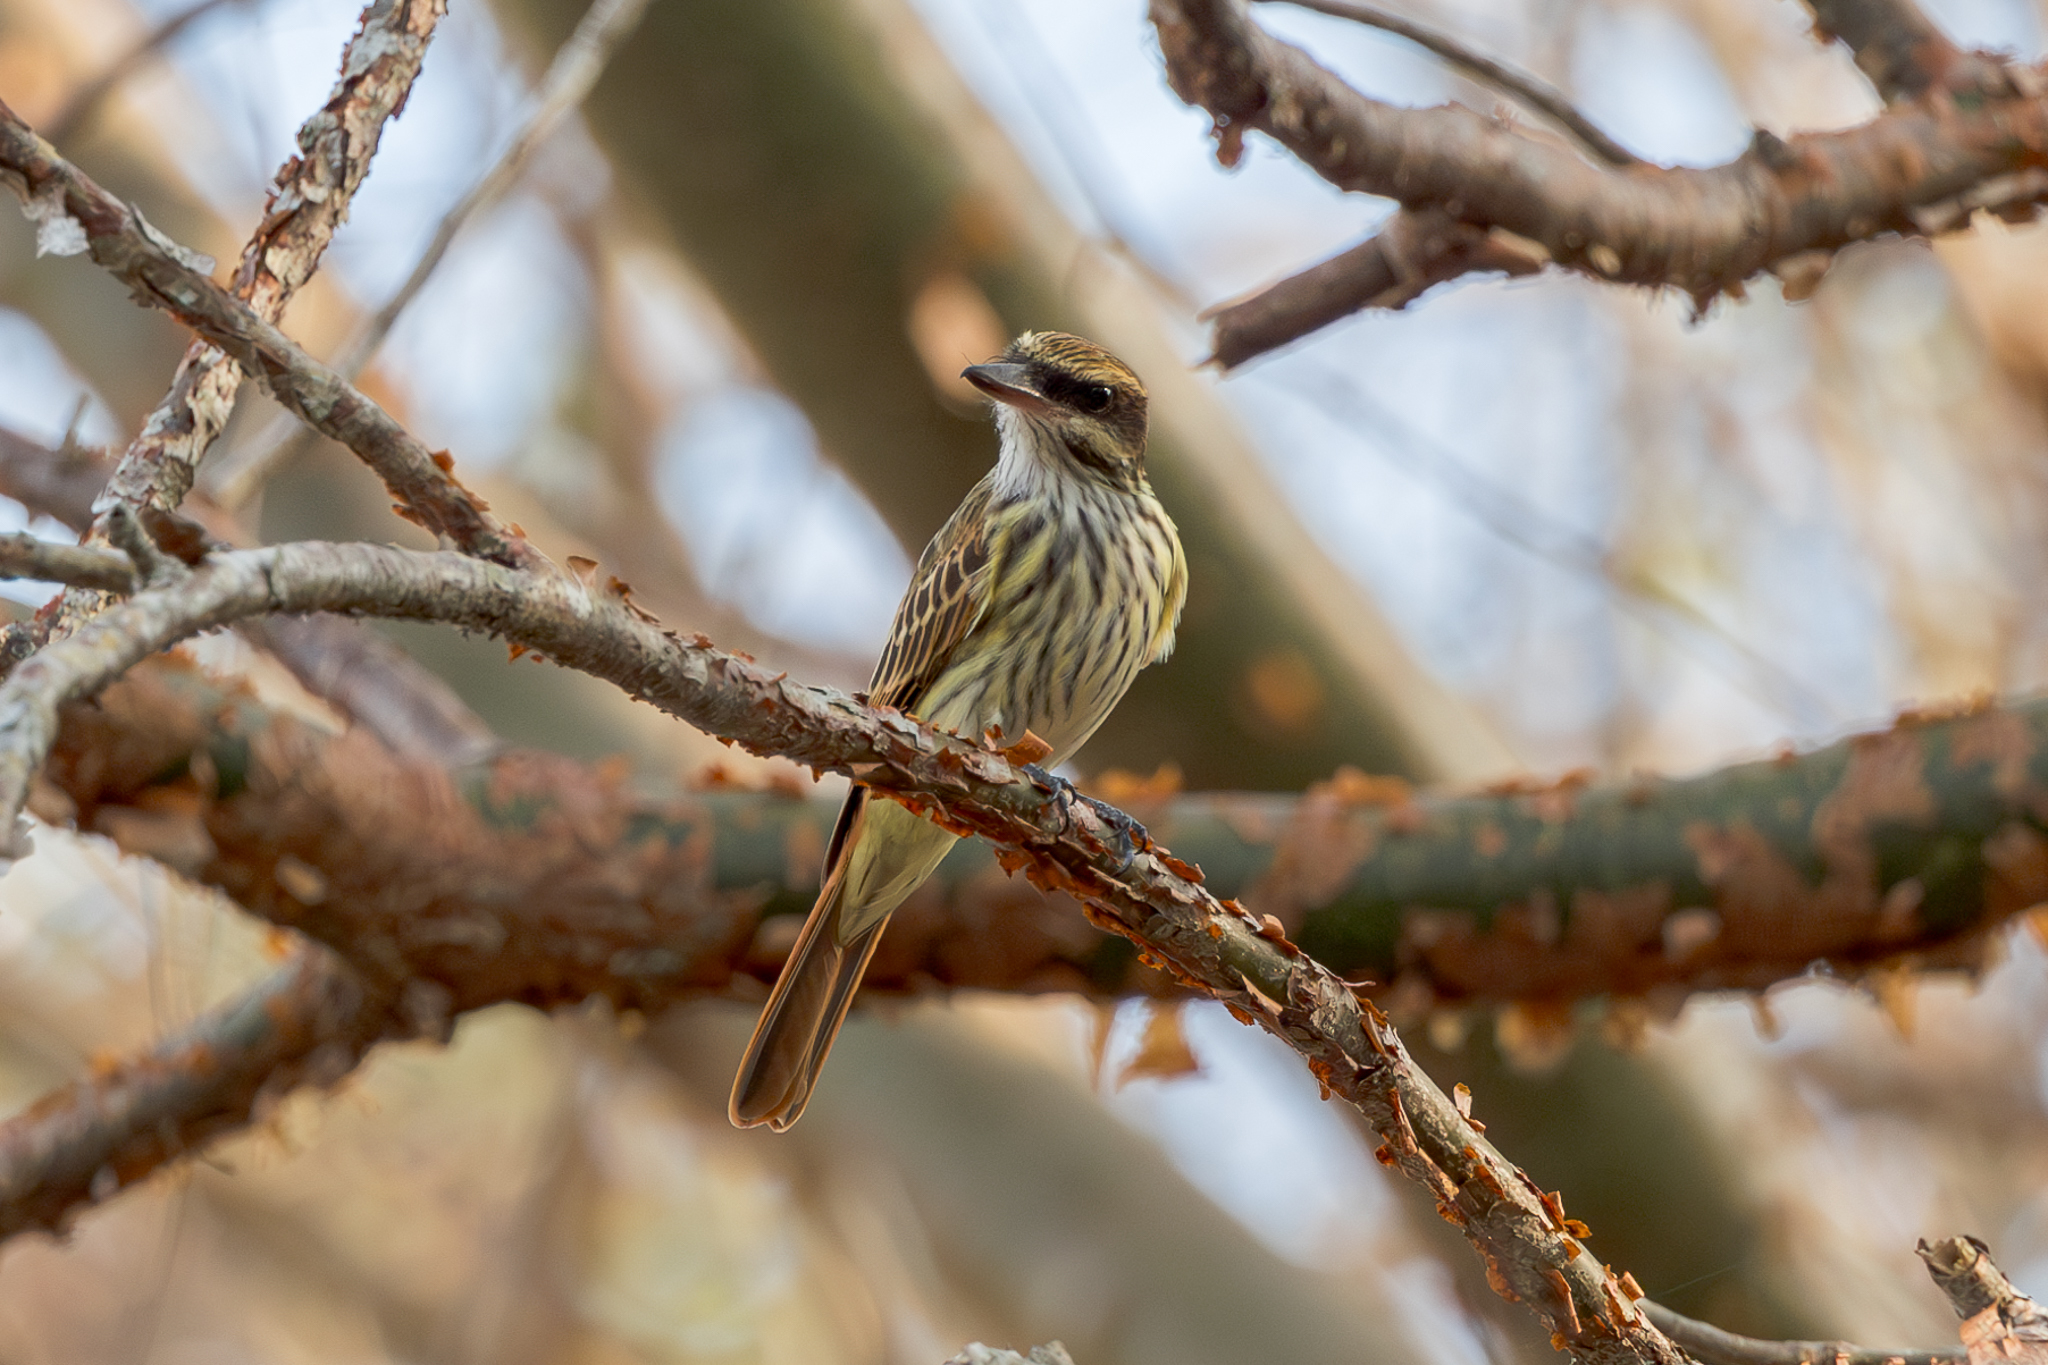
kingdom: Animalia
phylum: Chordata
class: Aves
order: Passeriformes
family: Tyrannidae
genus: Myiodynastes
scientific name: Myiodynastes maculatus
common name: Streaked flycatcher
